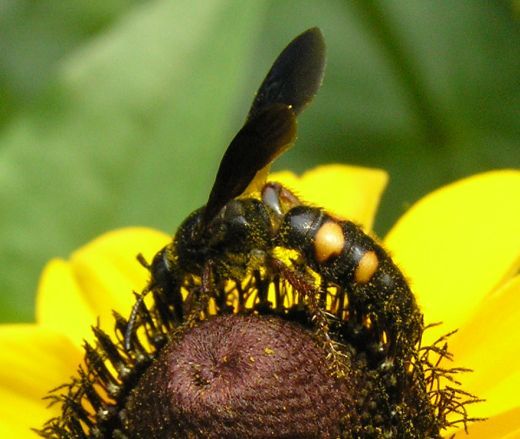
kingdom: Animalia
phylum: Arthropoda
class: Insecta
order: Hymenoptera
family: Scoliidae
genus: Scolia
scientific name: Scolia nobilitata
